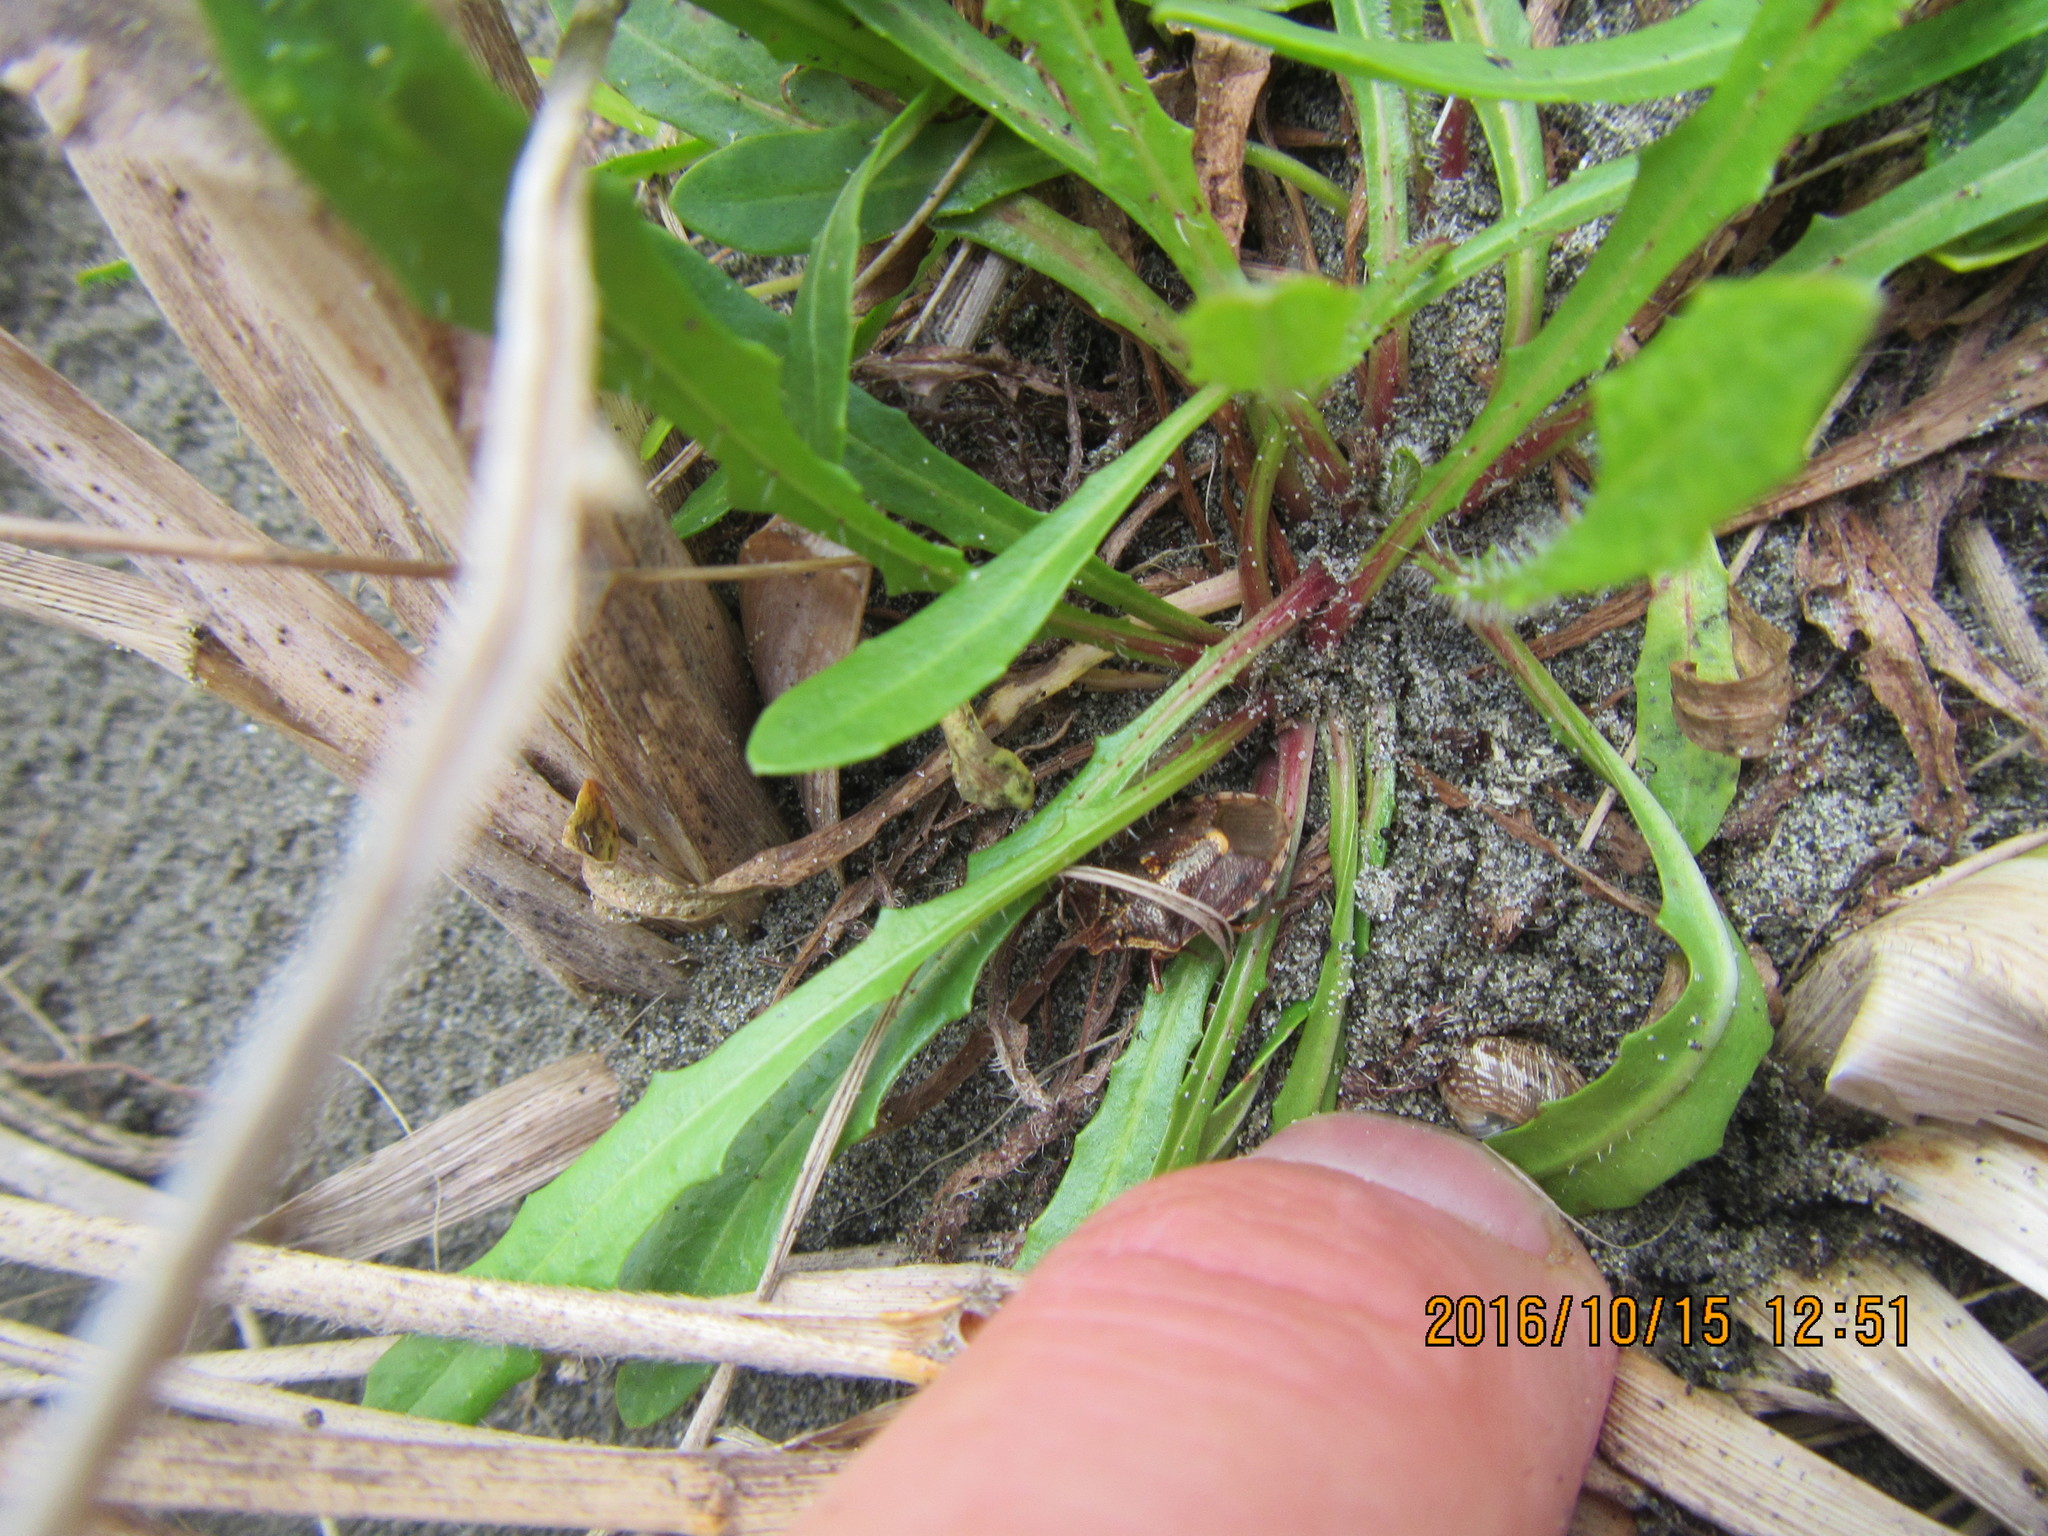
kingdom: Animalia
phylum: Arthropoda
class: Insecta
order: Hemiptera
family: Pentatomidae
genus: Cermatulus
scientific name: Cermatulus nasalis
